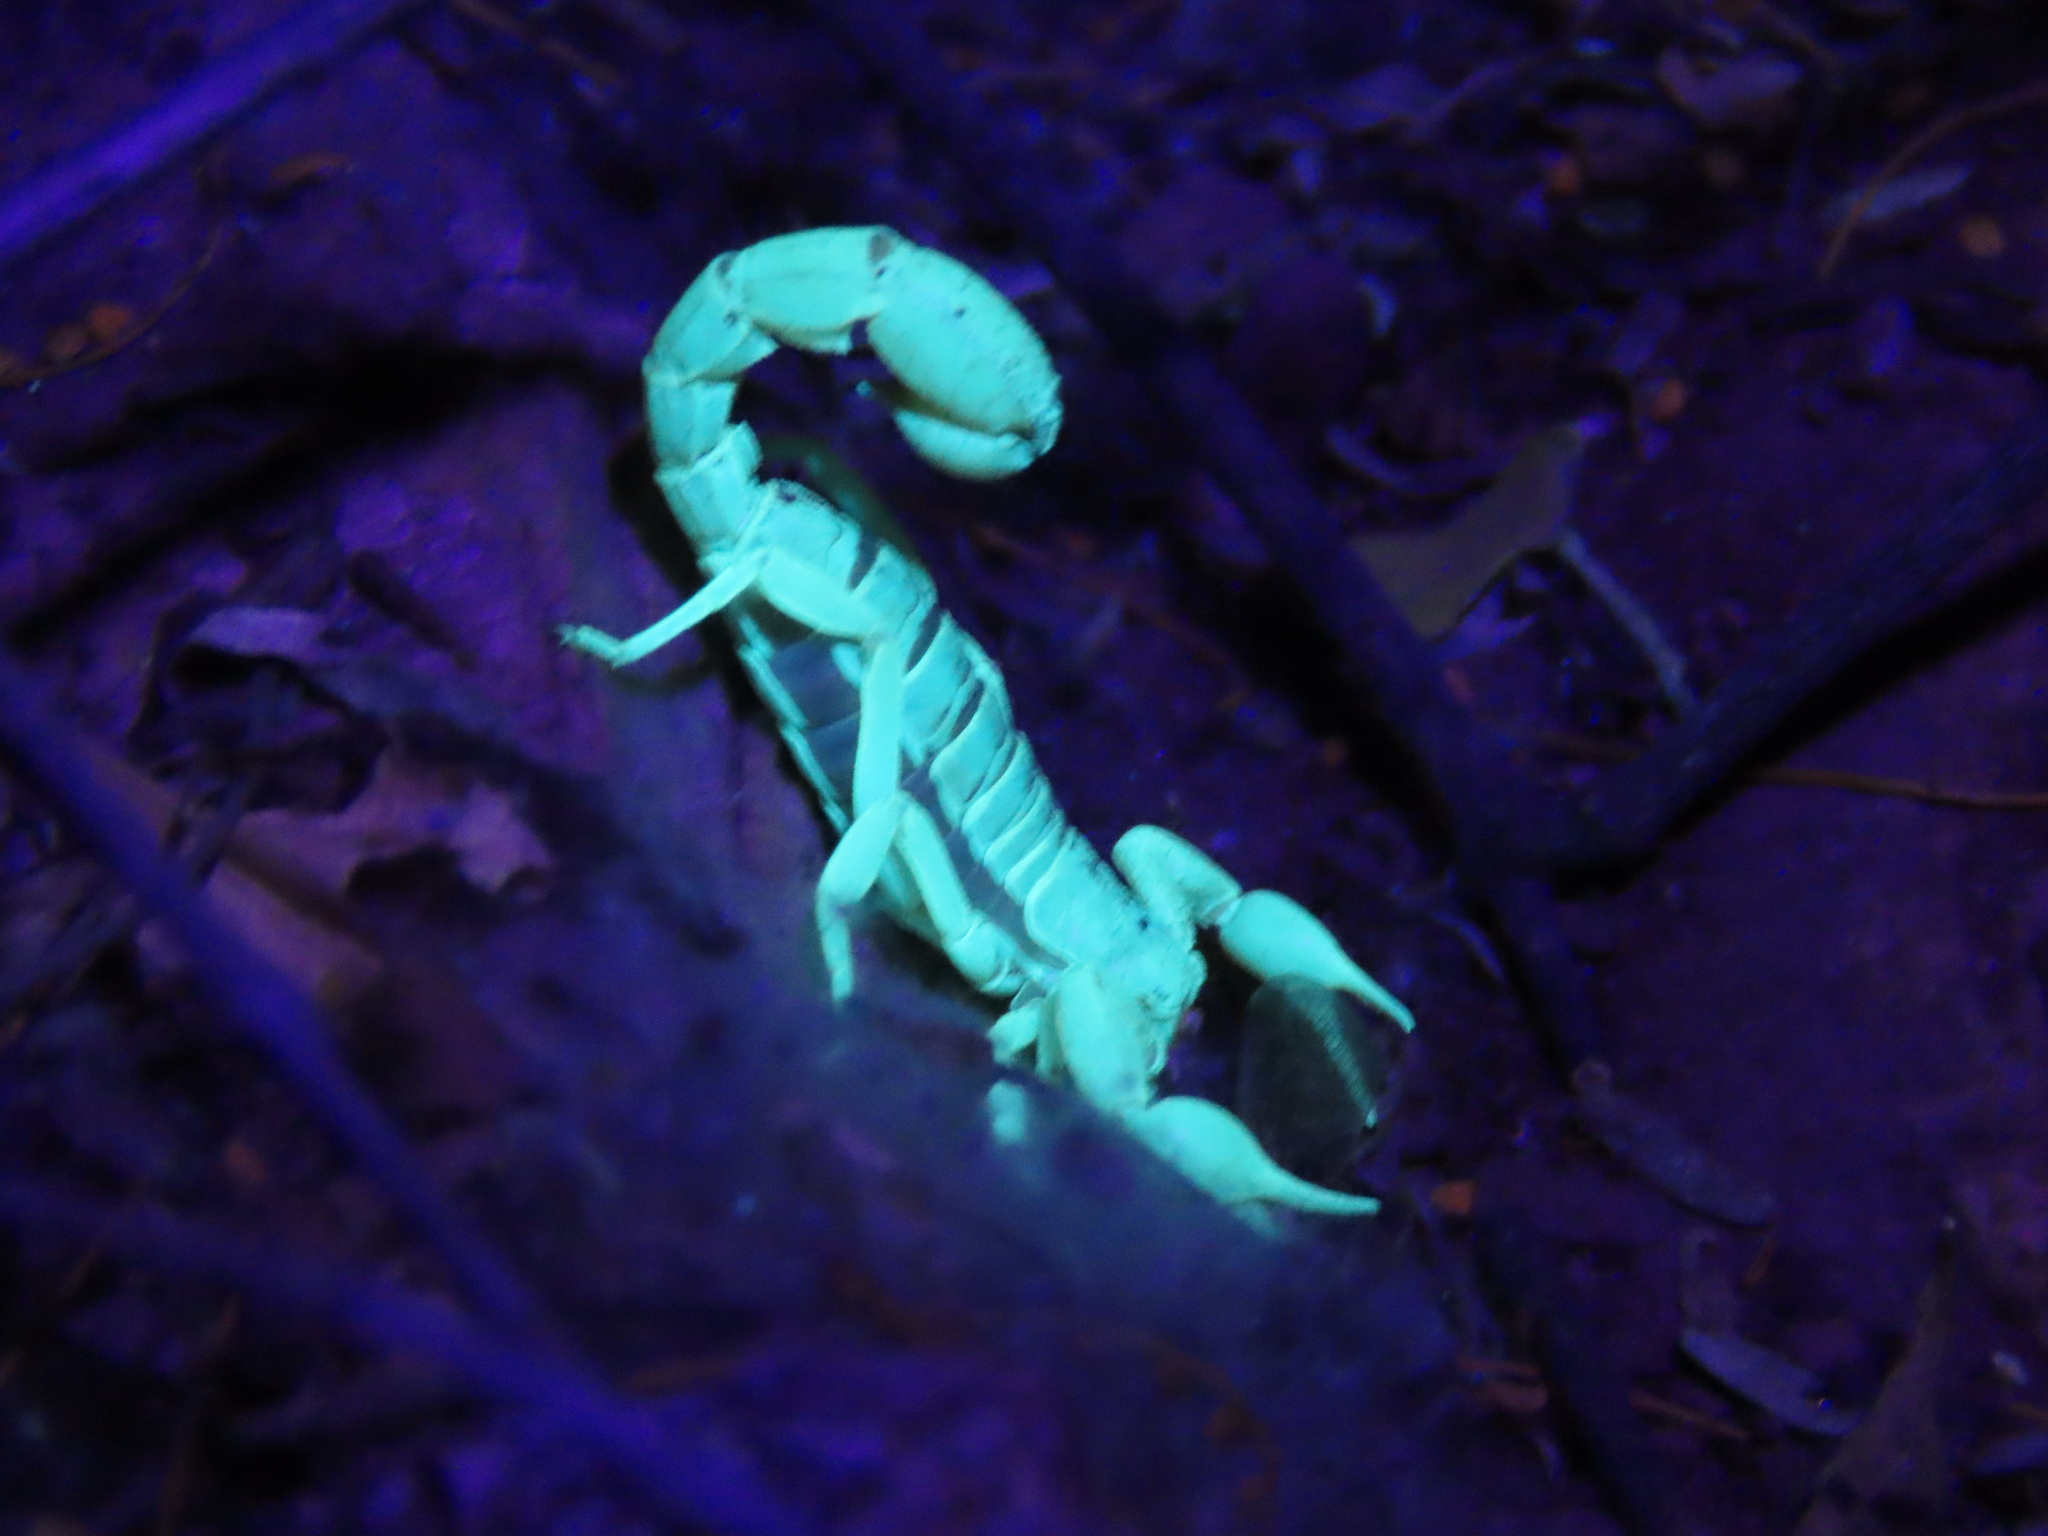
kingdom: Animalia
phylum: Arthropoda
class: Arachnida
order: Scorpiones
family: Vaejovidae
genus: Paravaejovis
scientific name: Paravaejovis spinigerus
